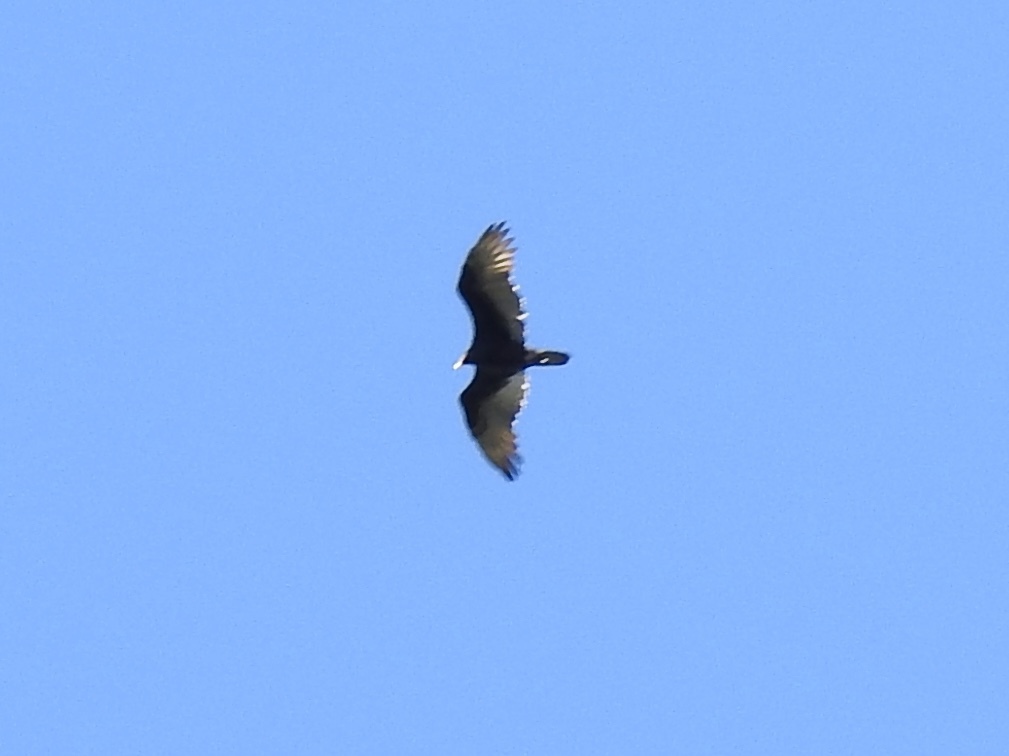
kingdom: Animalia
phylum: Chordata
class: Aves
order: Accipitriformes
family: Cathartidae
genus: Cathartes
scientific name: Cathartes aura
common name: Turkey vulture
